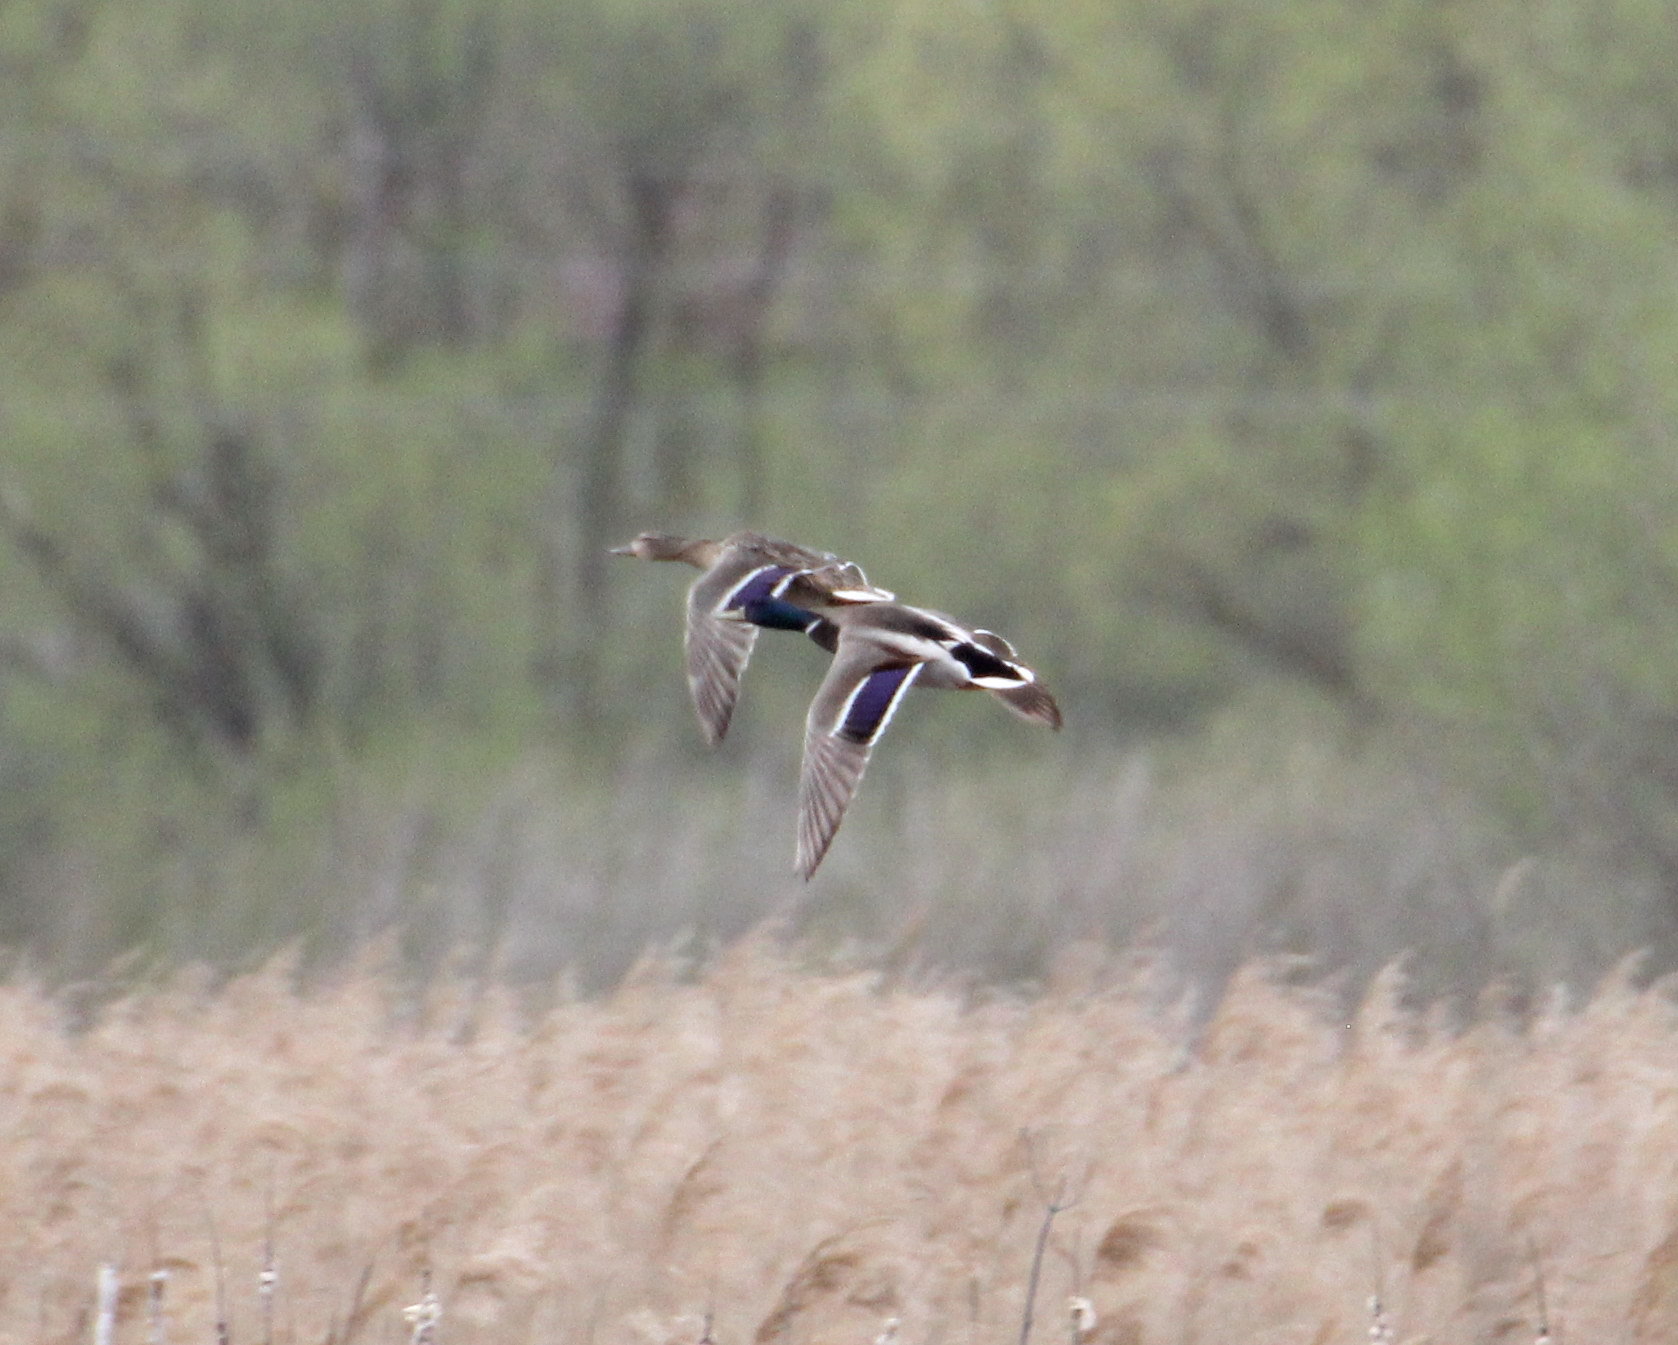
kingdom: Animalia
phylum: Chordata
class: Aves
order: Anseriformes
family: Anatidae
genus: Anas
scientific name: Anas platyrhynchos
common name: Mallard
